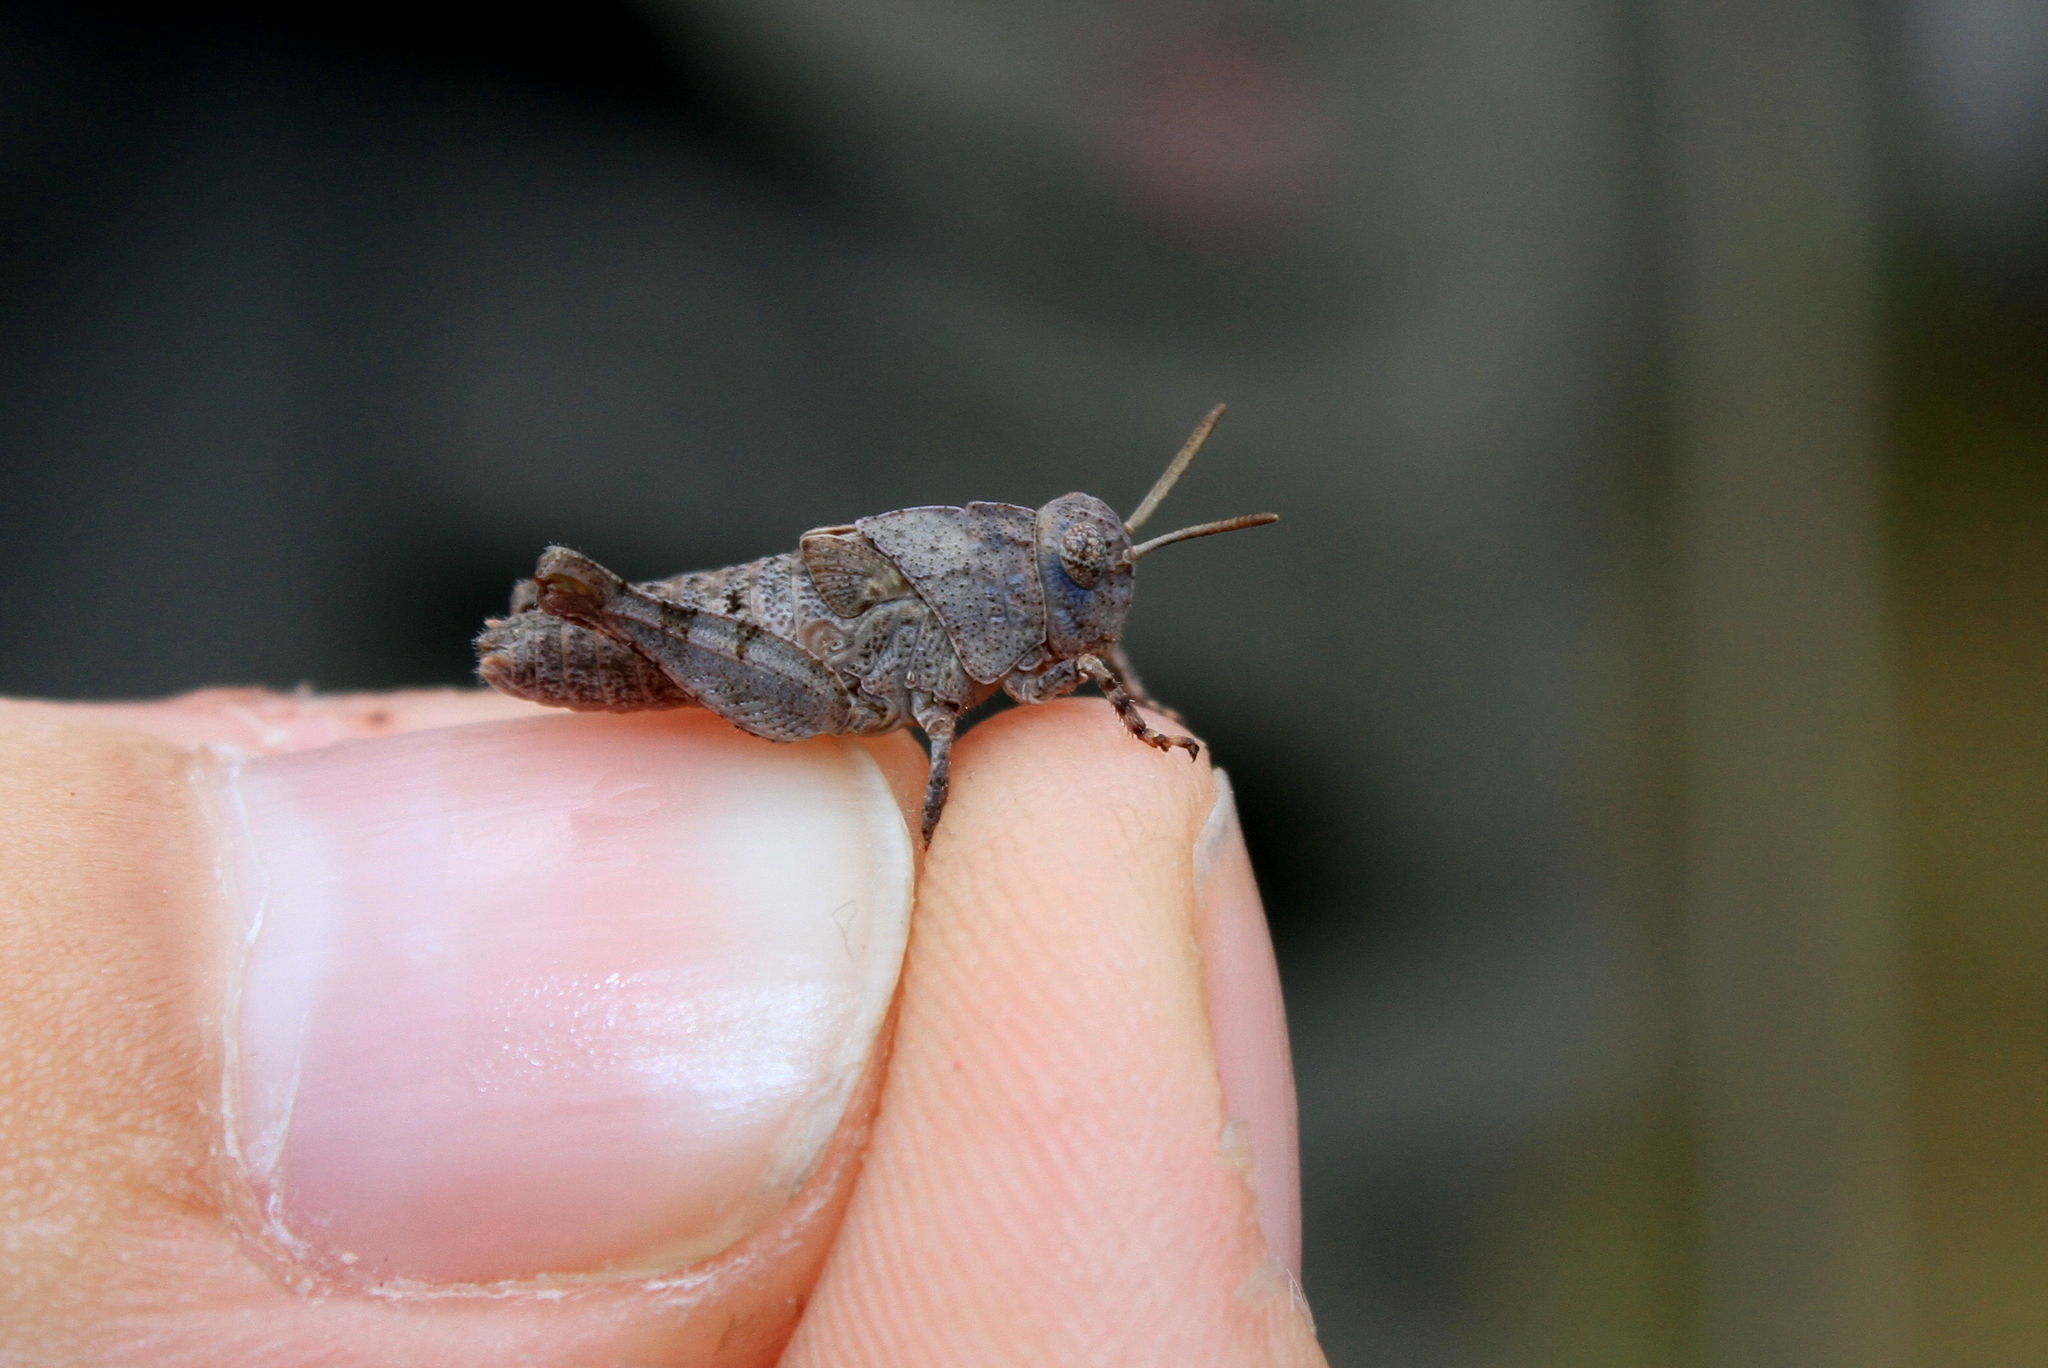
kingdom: Animalia
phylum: Arthropoda
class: Insecta
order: Orthoptera
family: Acrididae
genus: Oedipoda
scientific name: Oedipoda caerulescens
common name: Blue-winged grasshopper
